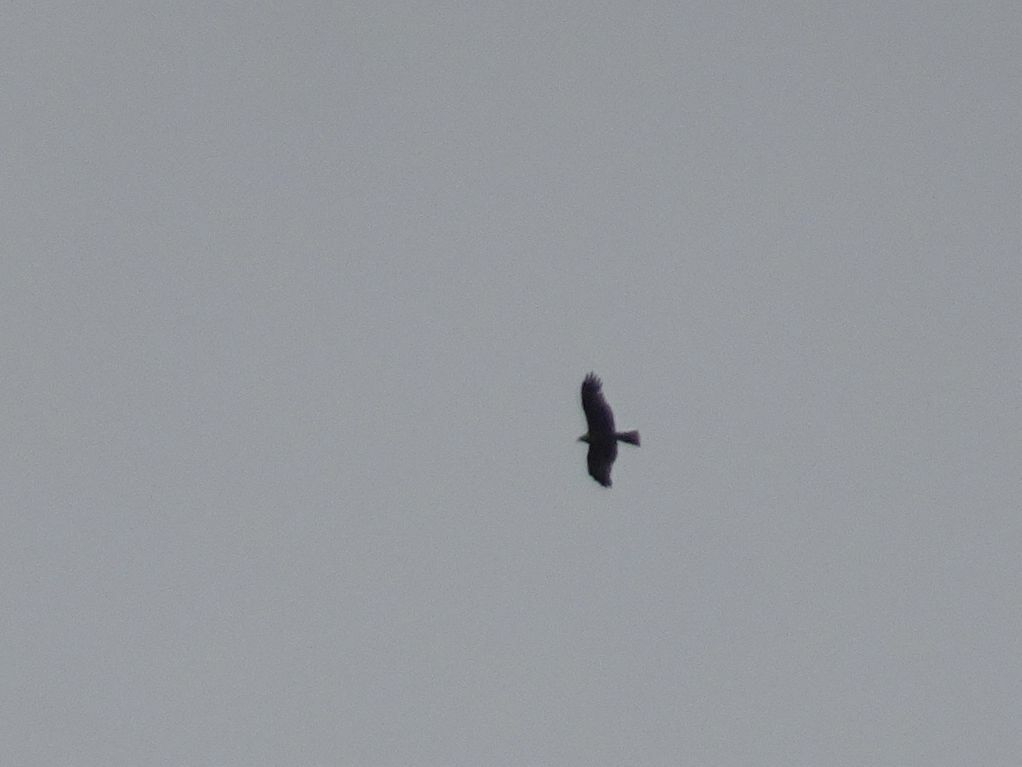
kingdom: Animalia
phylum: Chordata
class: Aves
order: Accipitriformes
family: Accipitridae
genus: Milvus
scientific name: Milvus migrans
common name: Black kite
